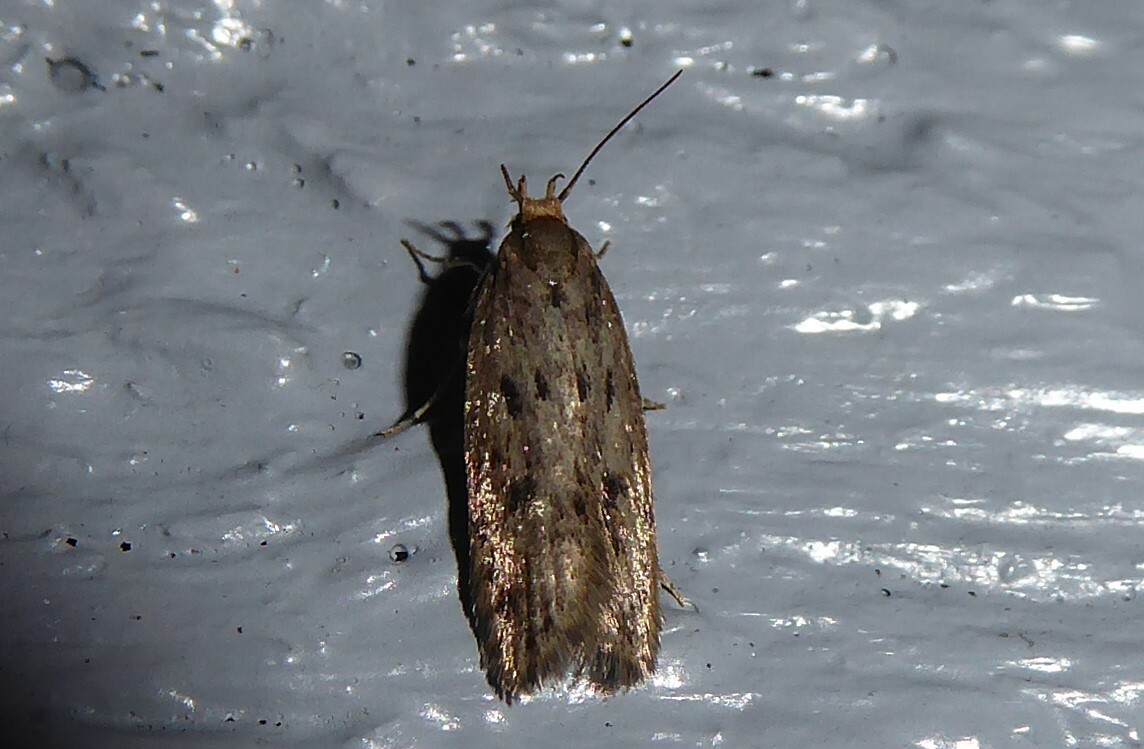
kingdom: Animalia
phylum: Arthropoda
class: Insecta
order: Lepidoptera
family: Oecophoridae
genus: Hofmannophila
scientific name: Hofmannophila pseudospretella
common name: Brown house moth
